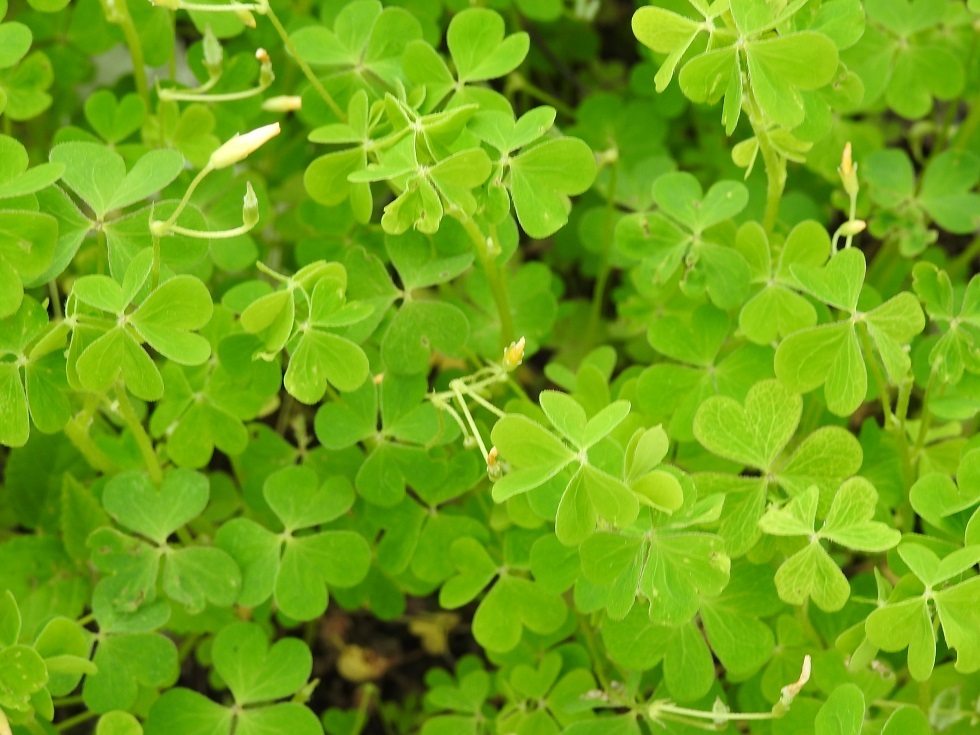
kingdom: Plantae
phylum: Tracheophyta
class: Magnoliopsida
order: Oxalidales
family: Oxalidaceae
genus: Oxalis
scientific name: Oxalis corniculata
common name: Procumbent yellow-sorrel
